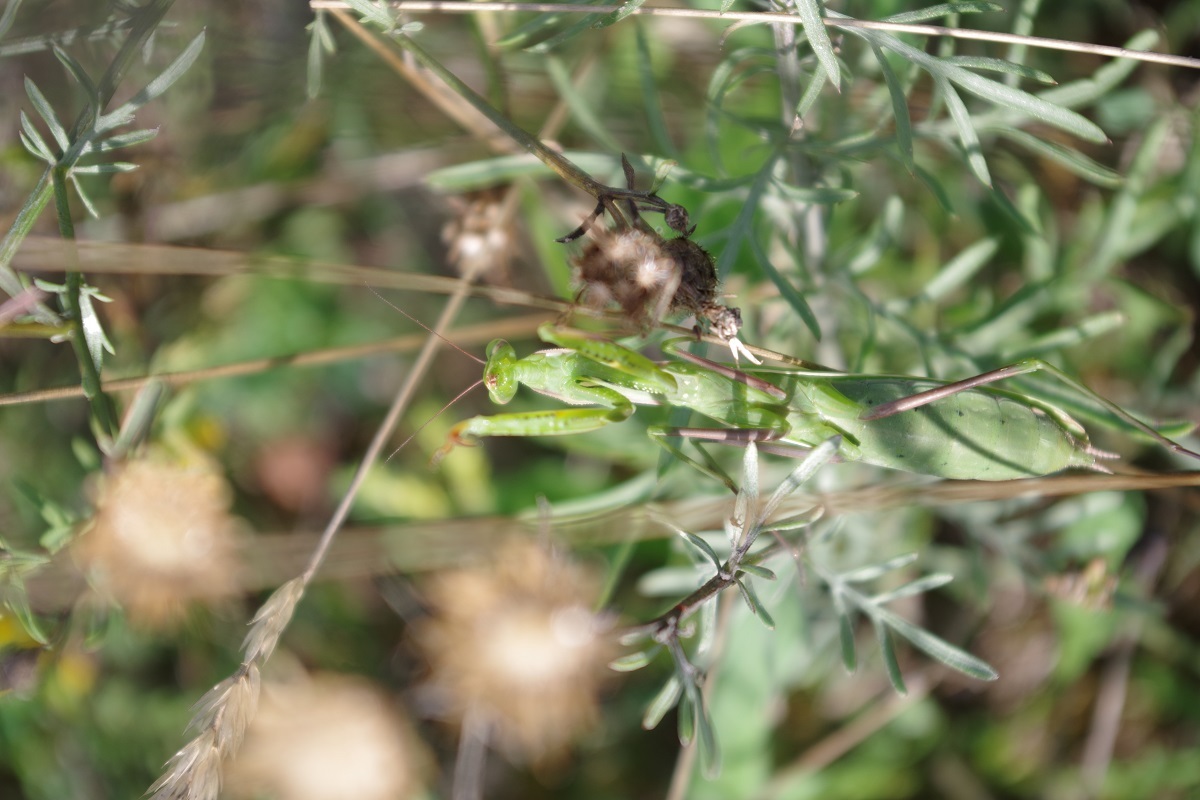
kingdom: Animalia
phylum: Arthropoda
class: Insecta
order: Mantodea
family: Mantidae
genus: Mantis
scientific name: Mantis religiosa
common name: Praying mantis
